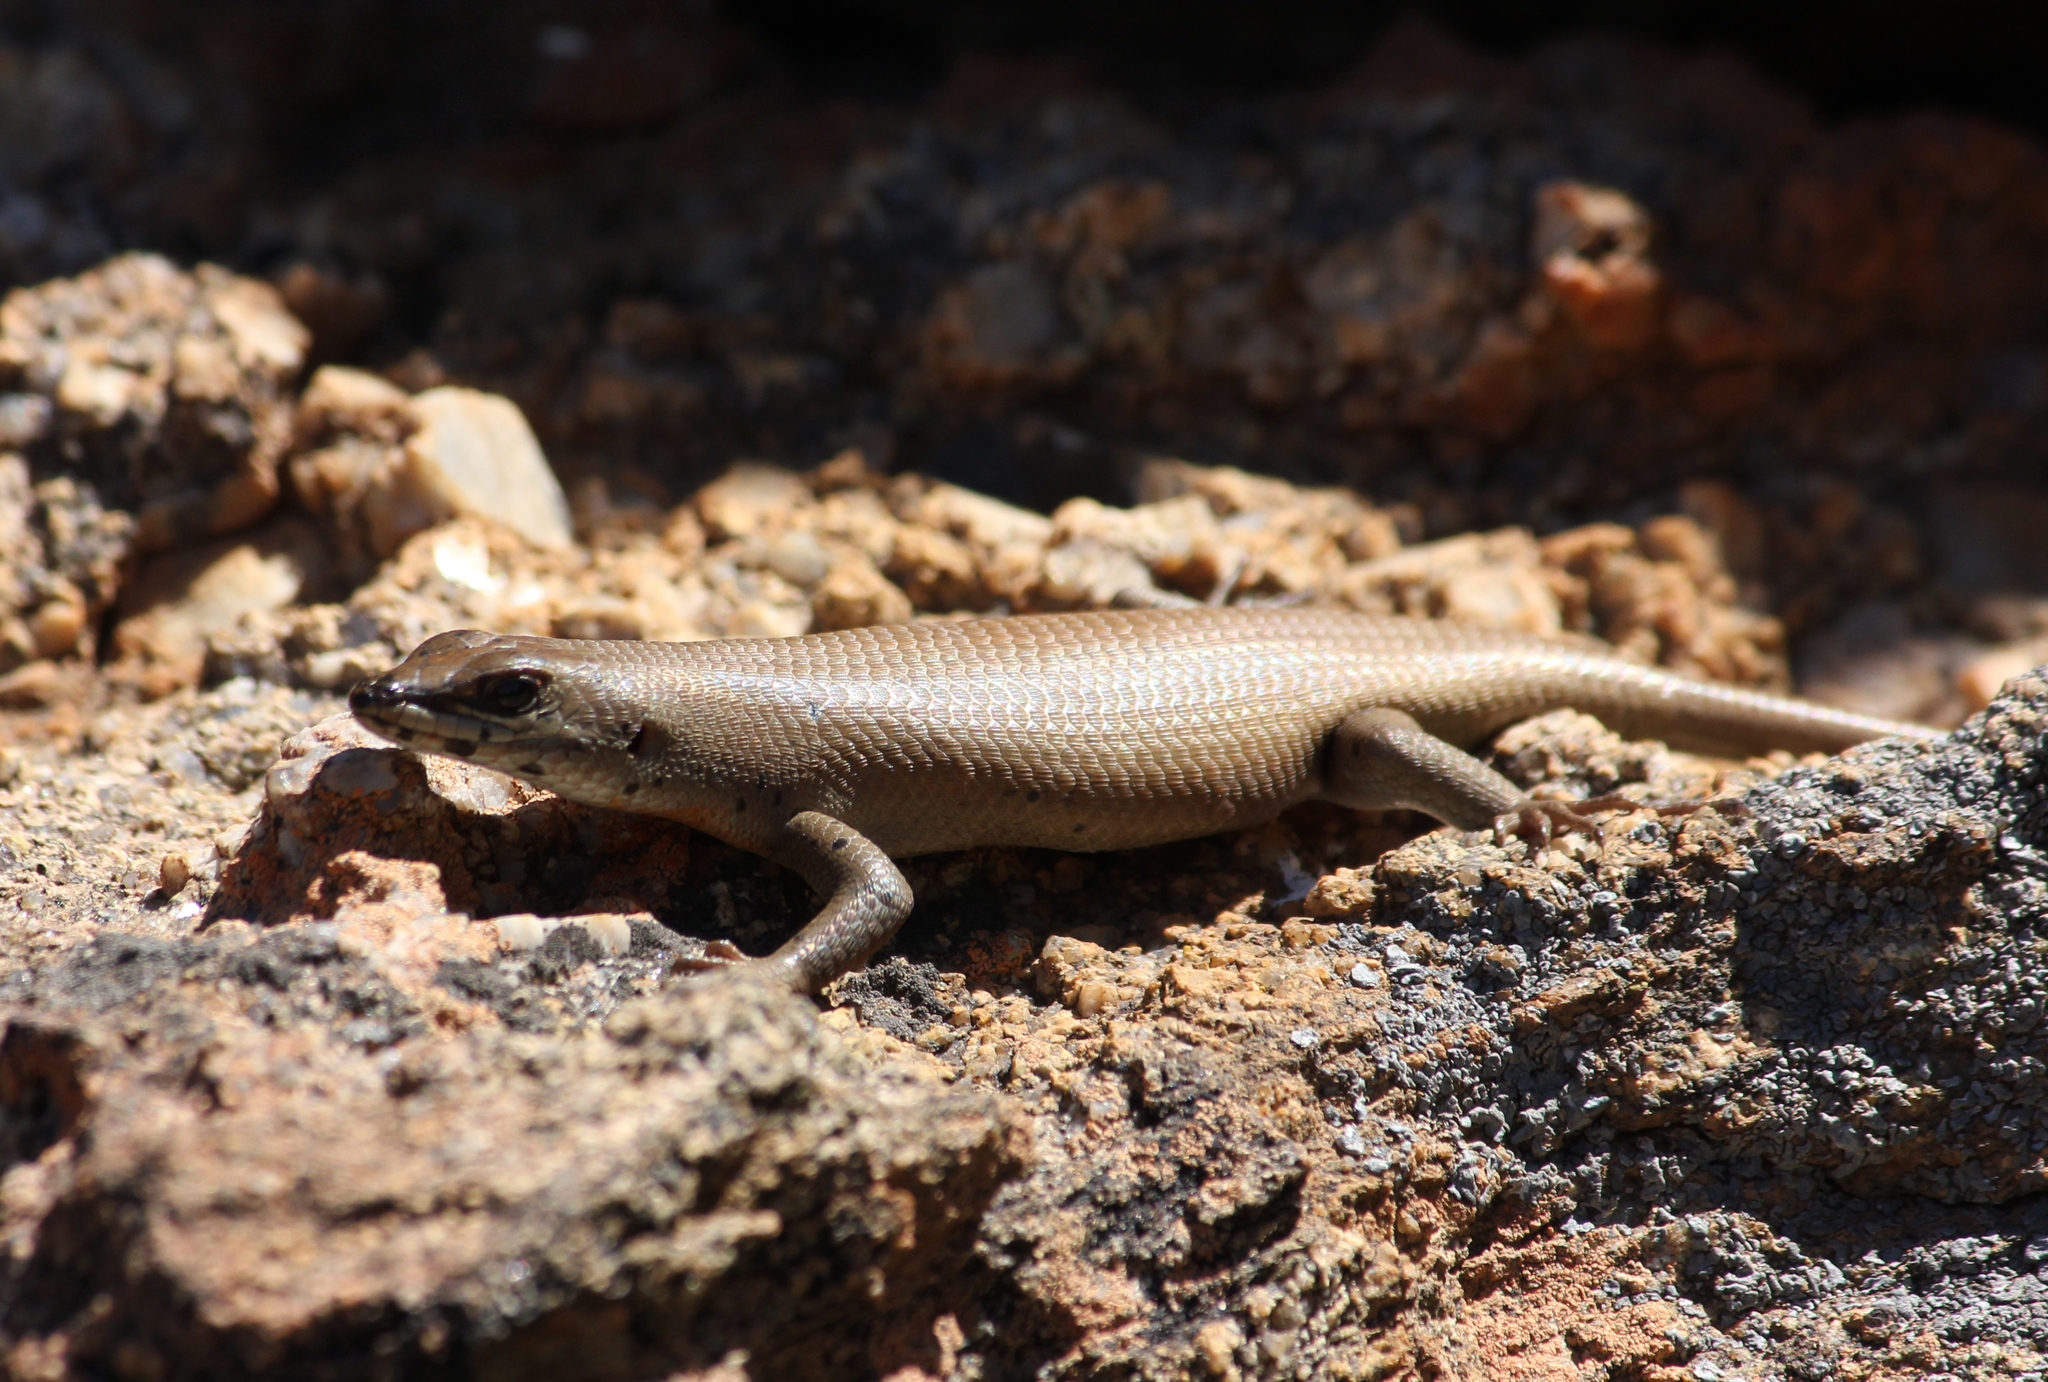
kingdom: Animalia
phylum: Chordata
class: Squamata
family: Scincidae
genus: Trachylepis
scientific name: Trachylepis sulcata
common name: Western rock skink
